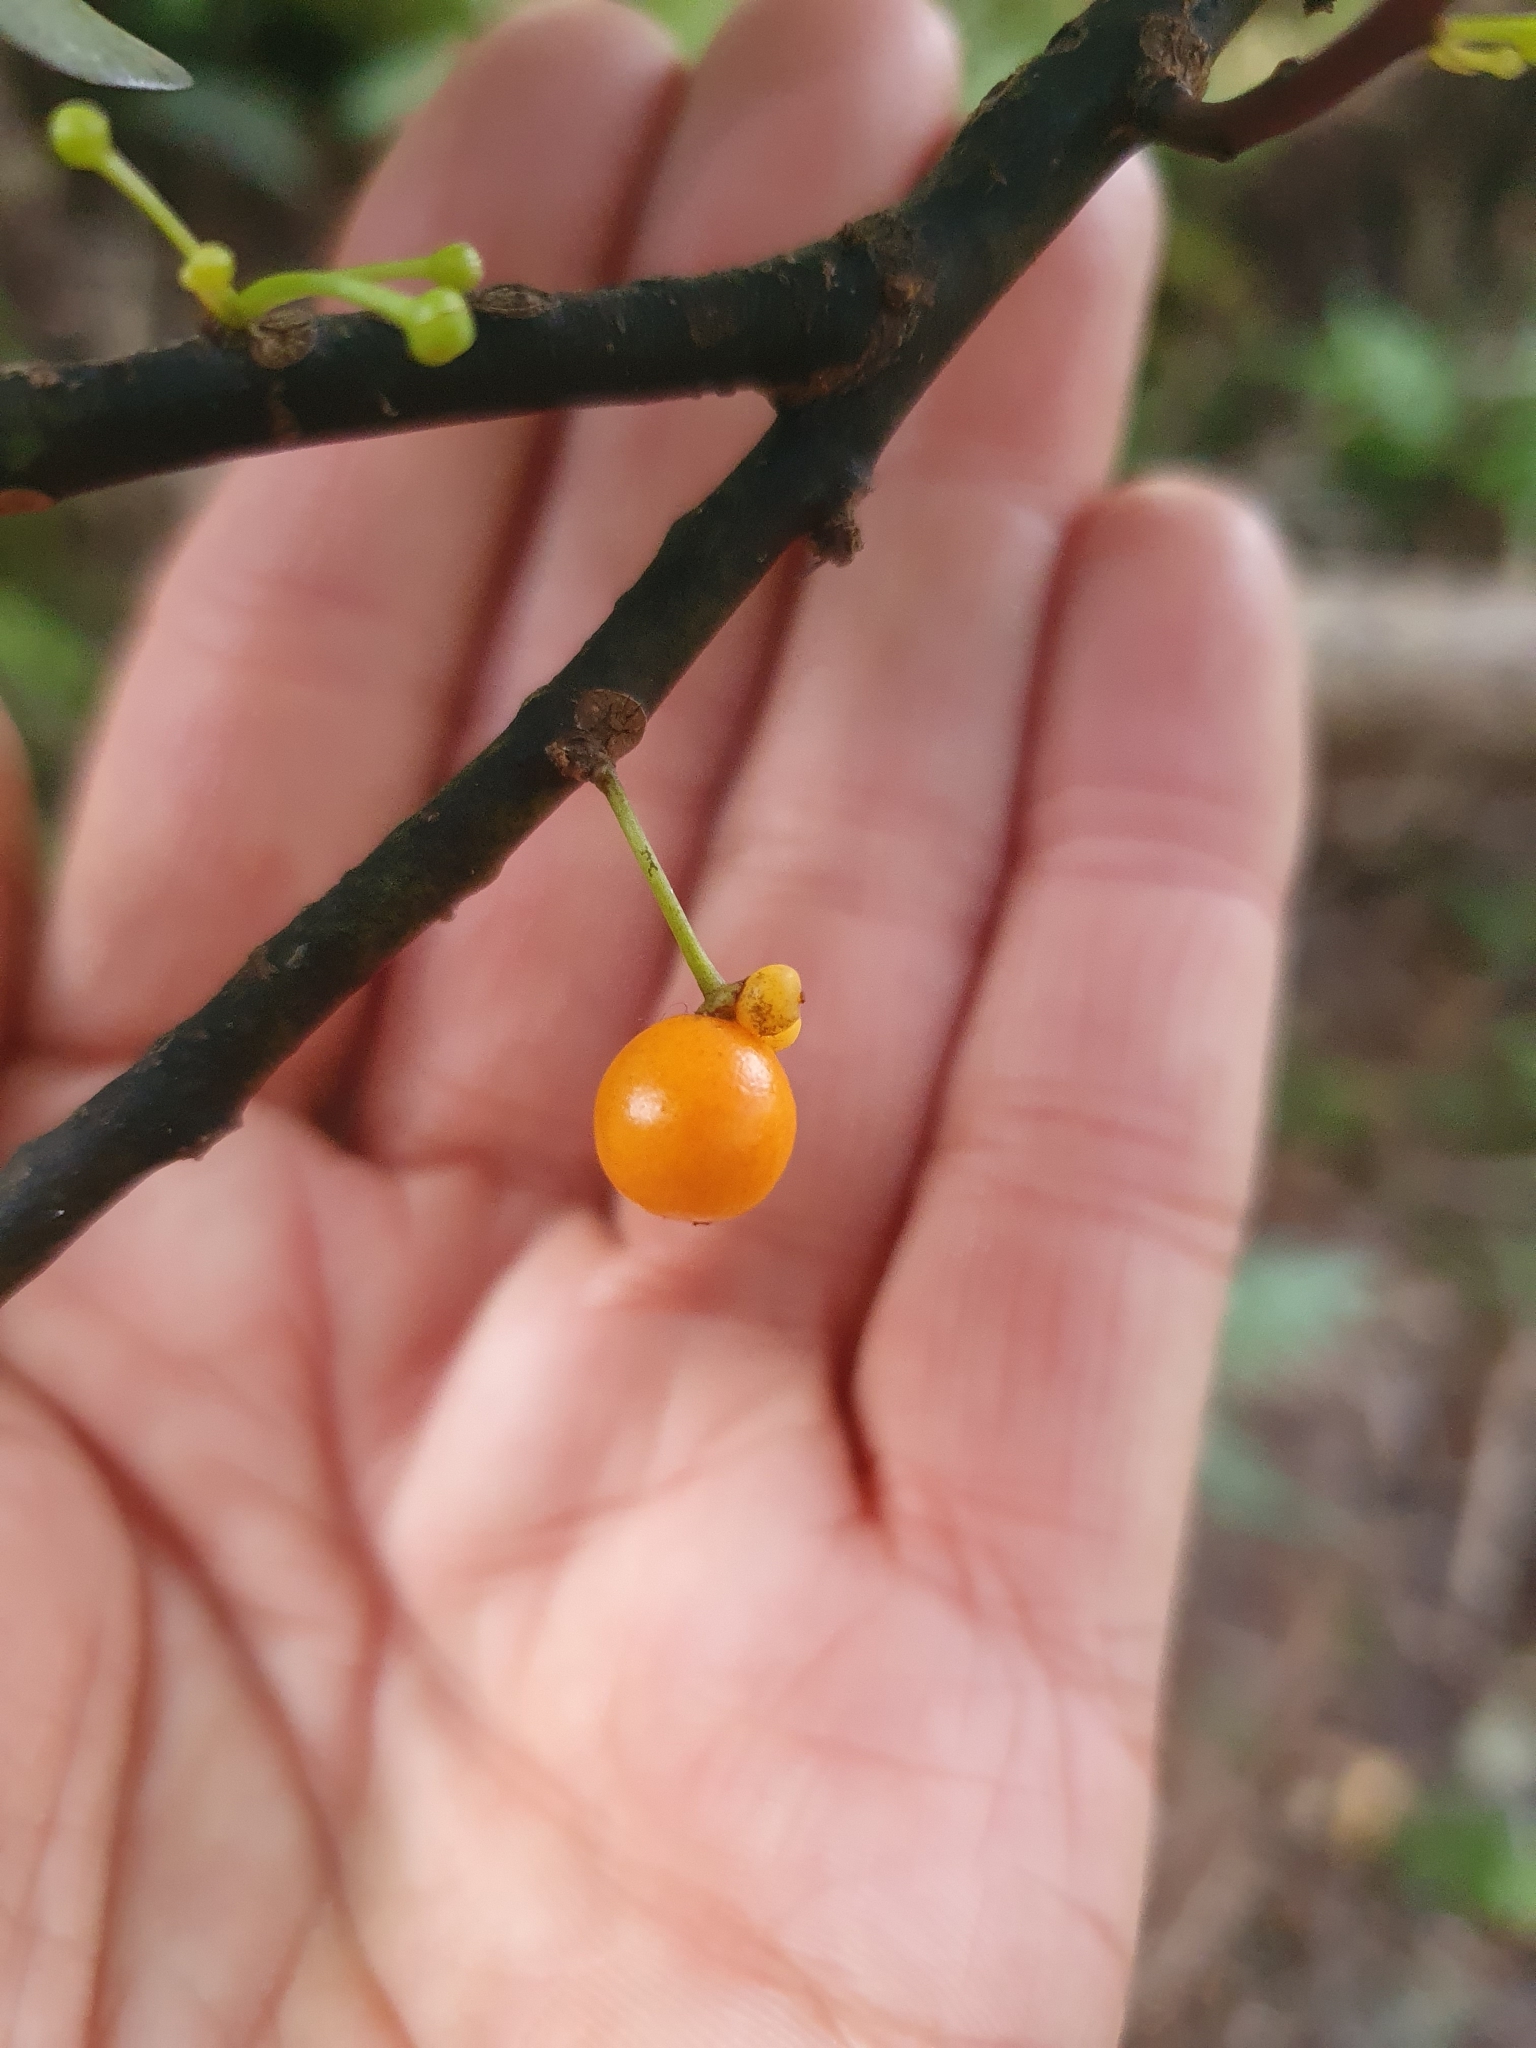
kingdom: Plantae
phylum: Tracheophyta
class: Magnoliopsida
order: Canellales
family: Winteraceae
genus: Pseudowintera
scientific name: Pseudowintera axillaris
